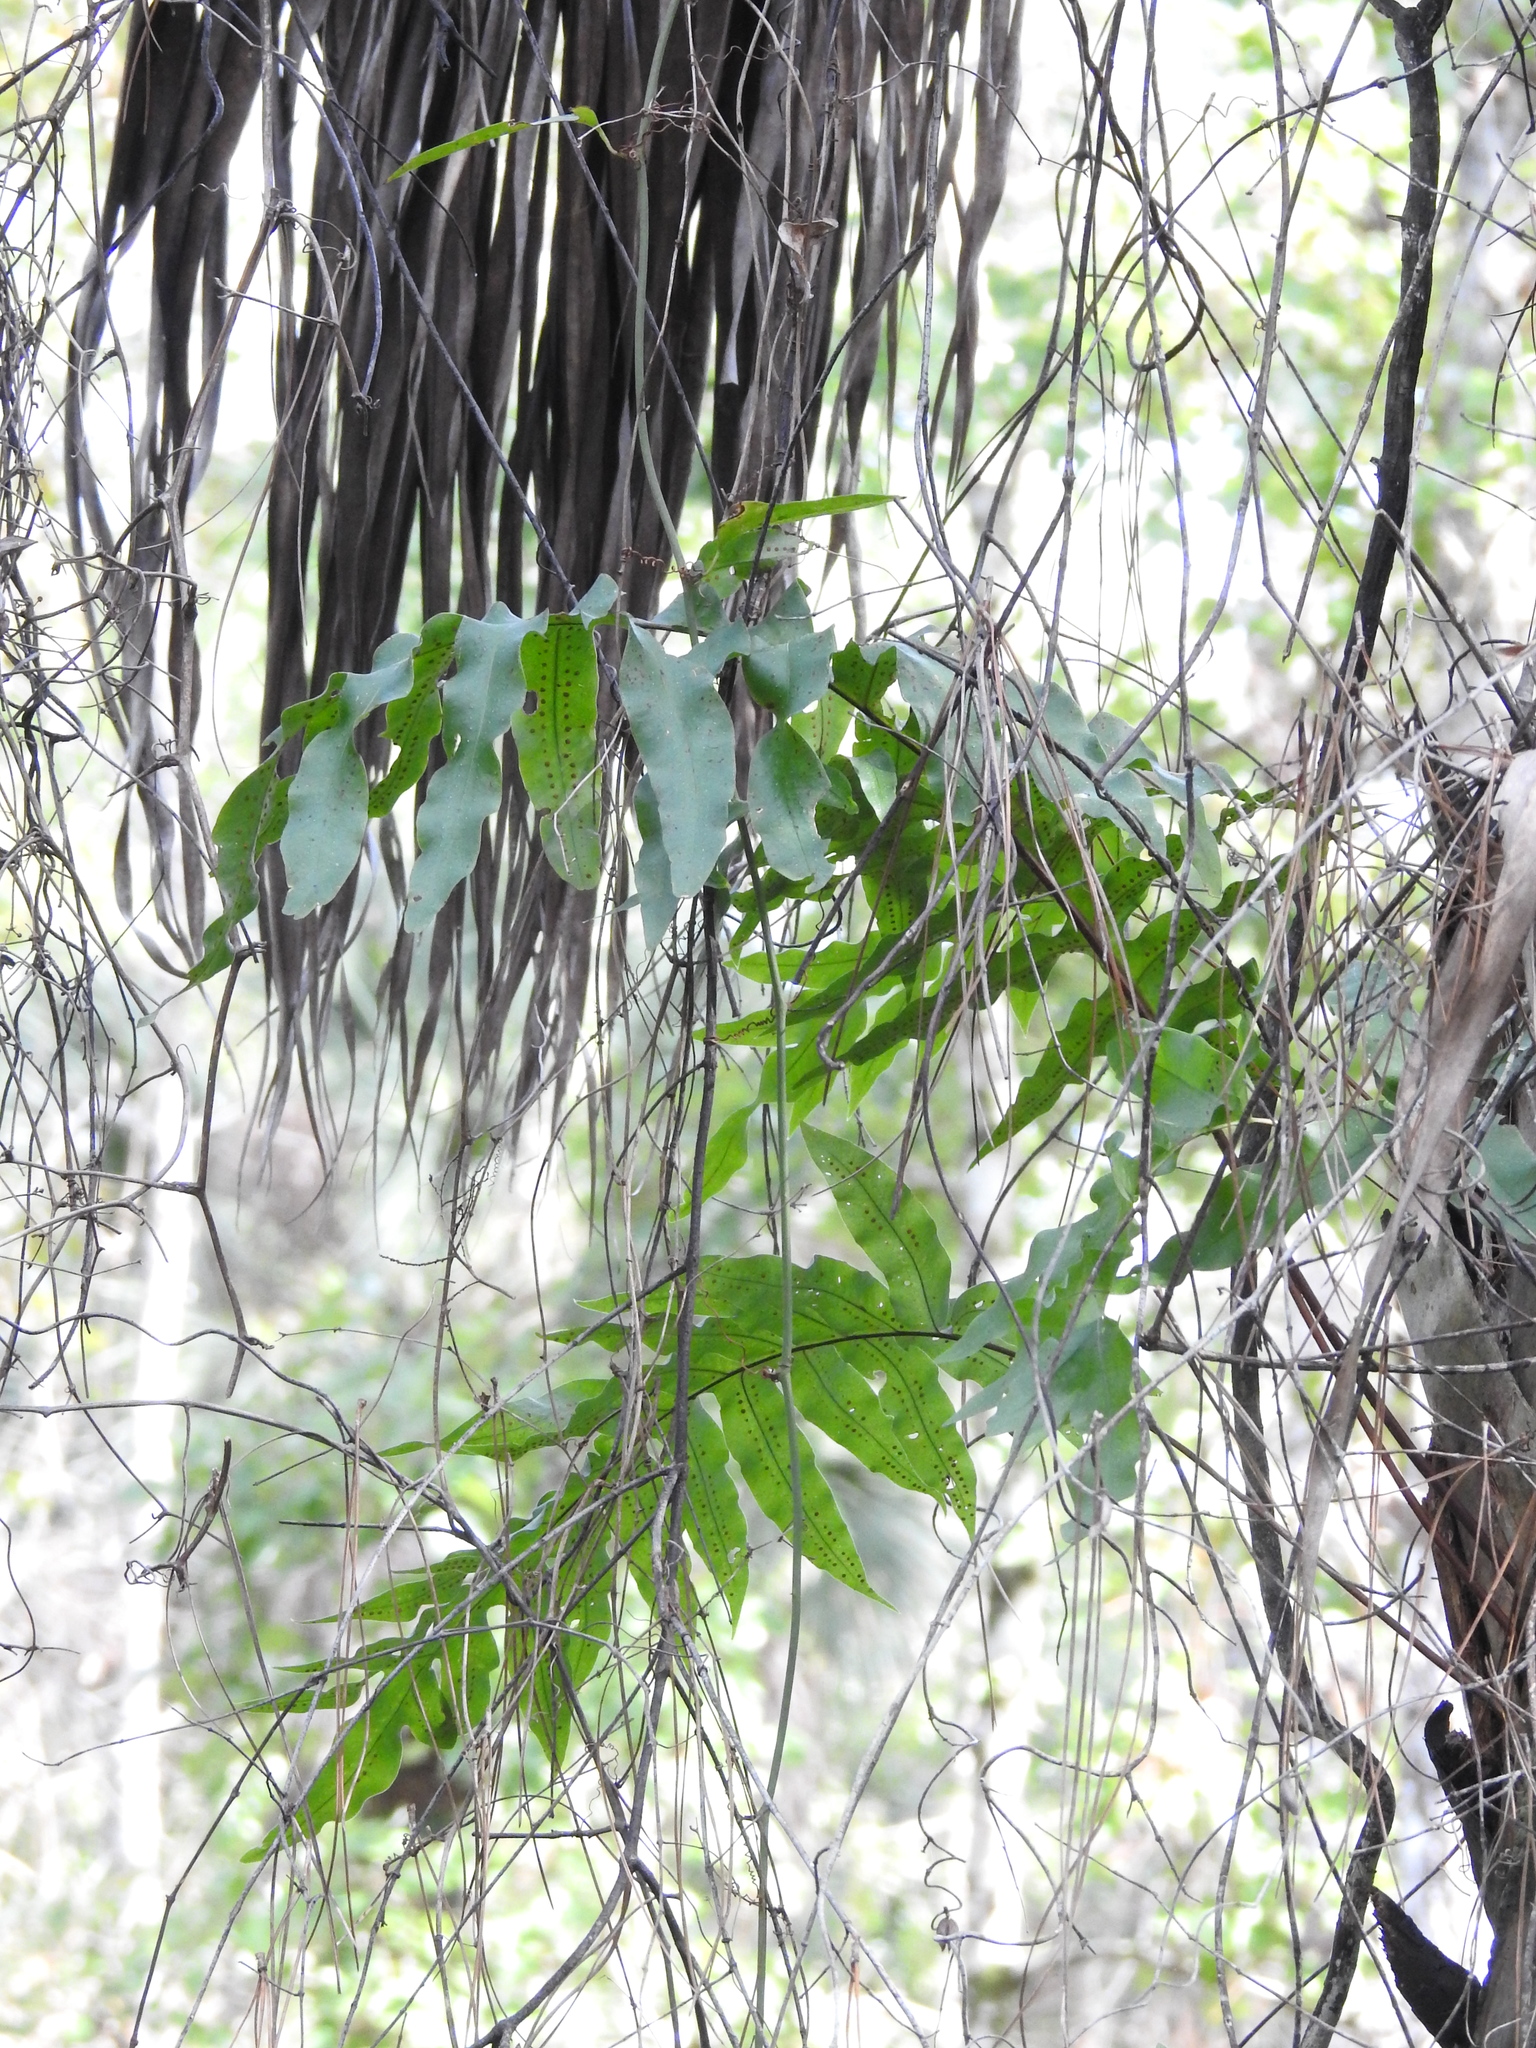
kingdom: Plantae
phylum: Tracheophyta
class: Polypodiopsida
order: Polypodiales
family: Polypodiaceae
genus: Phlebodium
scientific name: Phlebodium aureum
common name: Gold-foot fern
